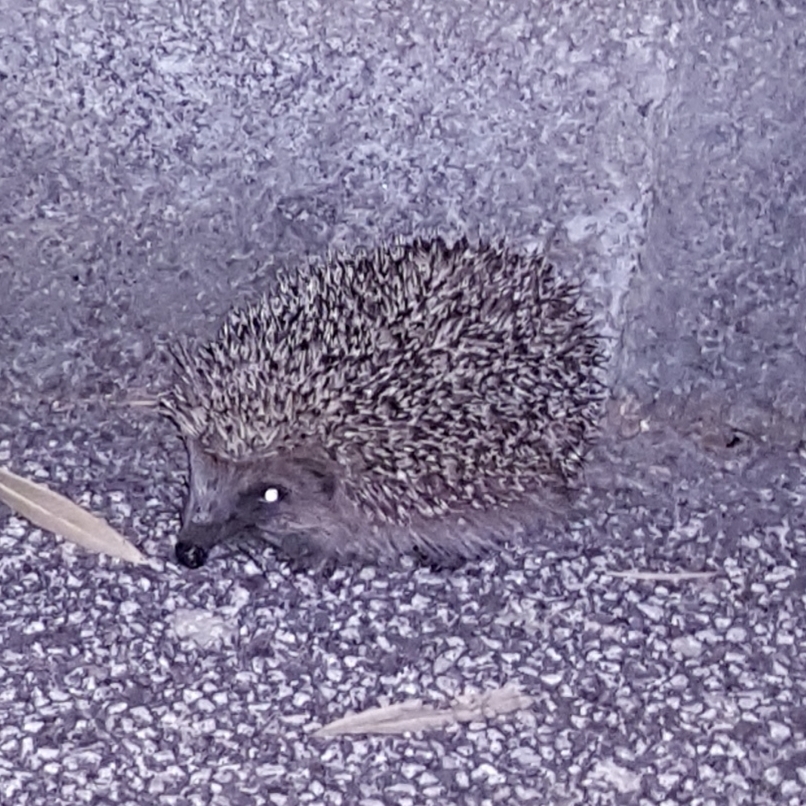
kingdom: Animalia
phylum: Chordata
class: Mammalia
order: Erinaceomorpha
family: Erinaceidae
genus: Erinaceus
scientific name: Erinaceus europaeus
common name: West european hedgehog
